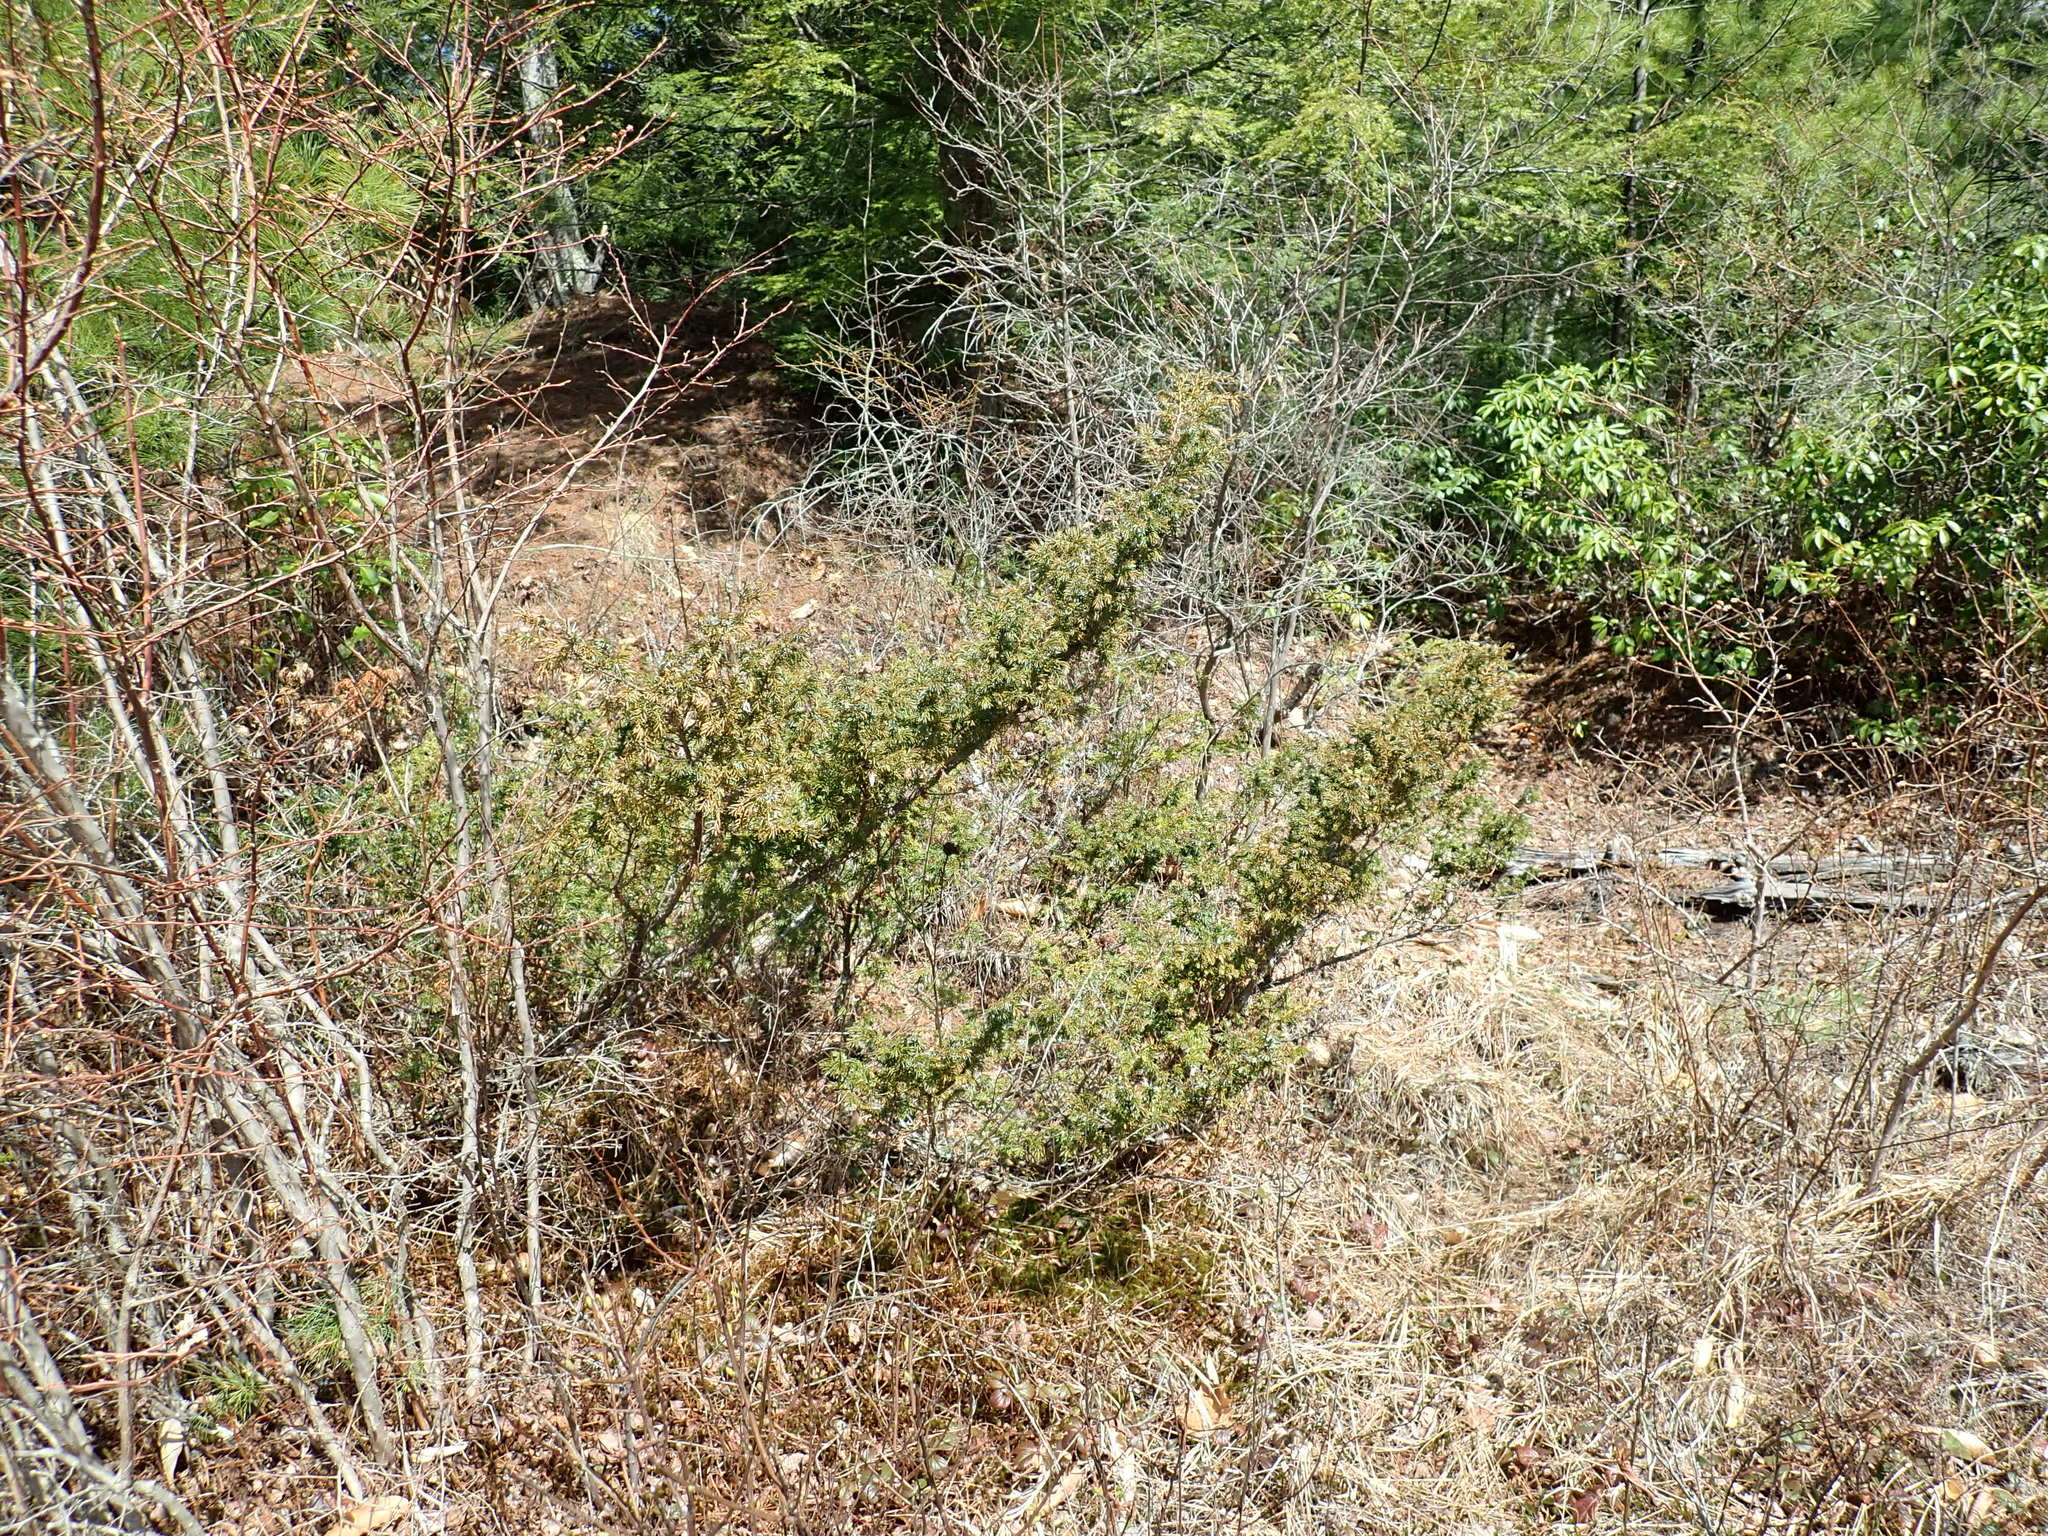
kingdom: Plantae
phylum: Tracheophyta
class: Pinopsida
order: Pinales
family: Cupressaceae
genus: Juniperus
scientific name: Juniperus communis
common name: Common juniper
